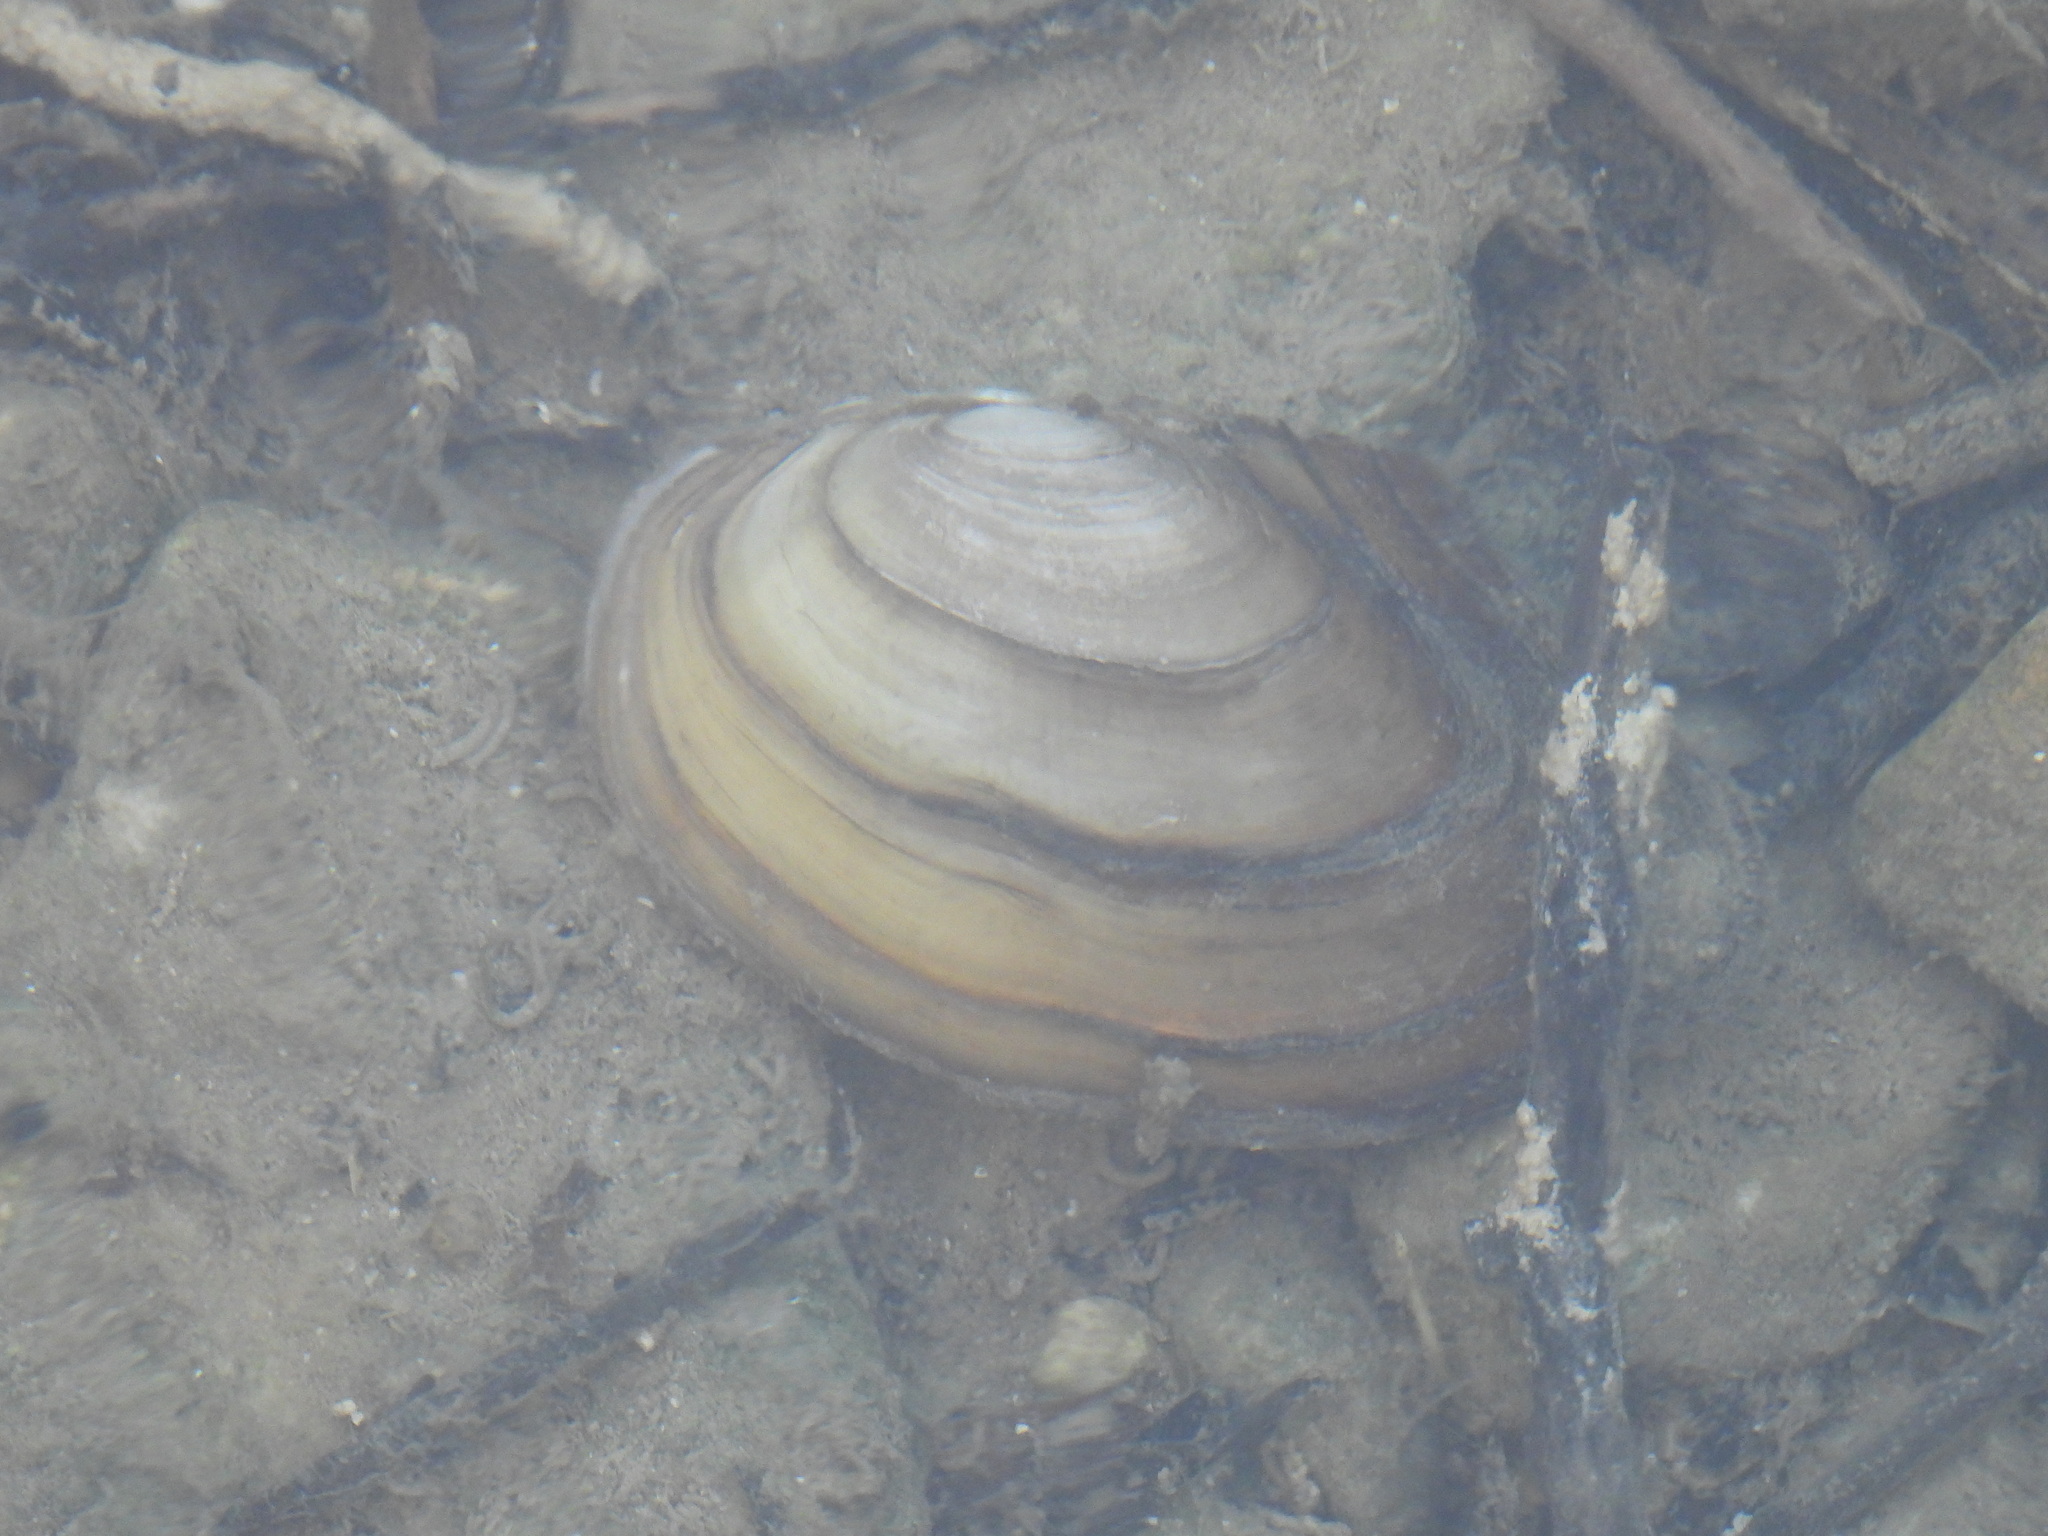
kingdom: Animalia
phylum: Mollusca
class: Bivalvia
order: Unionida
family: Unionidae
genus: Anodonta
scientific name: Anodonta anatina
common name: Duck mussel
